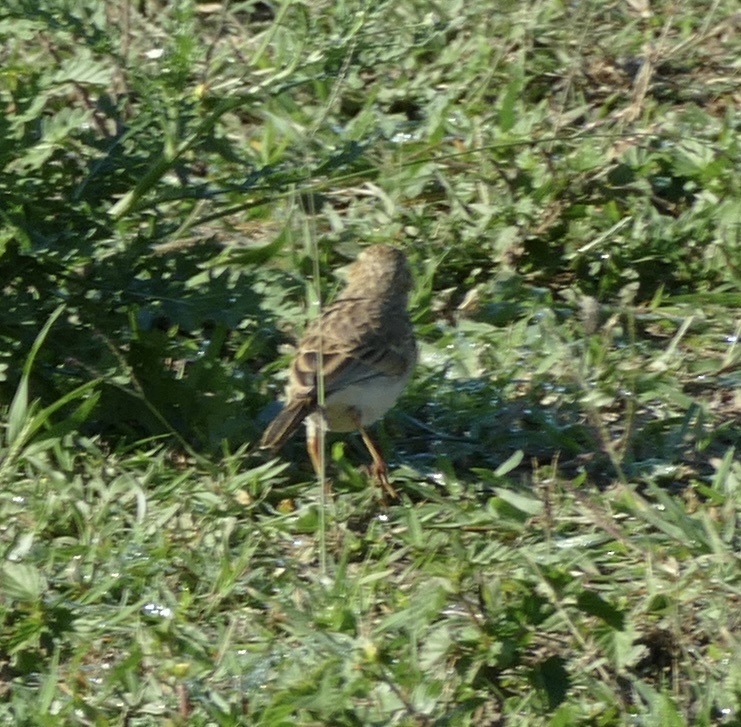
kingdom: Animalia
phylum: Chordata
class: Aves
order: Passeriformes
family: Motacillidae
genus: Macronyx
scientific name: Macronyx croceus
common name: Yellow-throated longclaw
